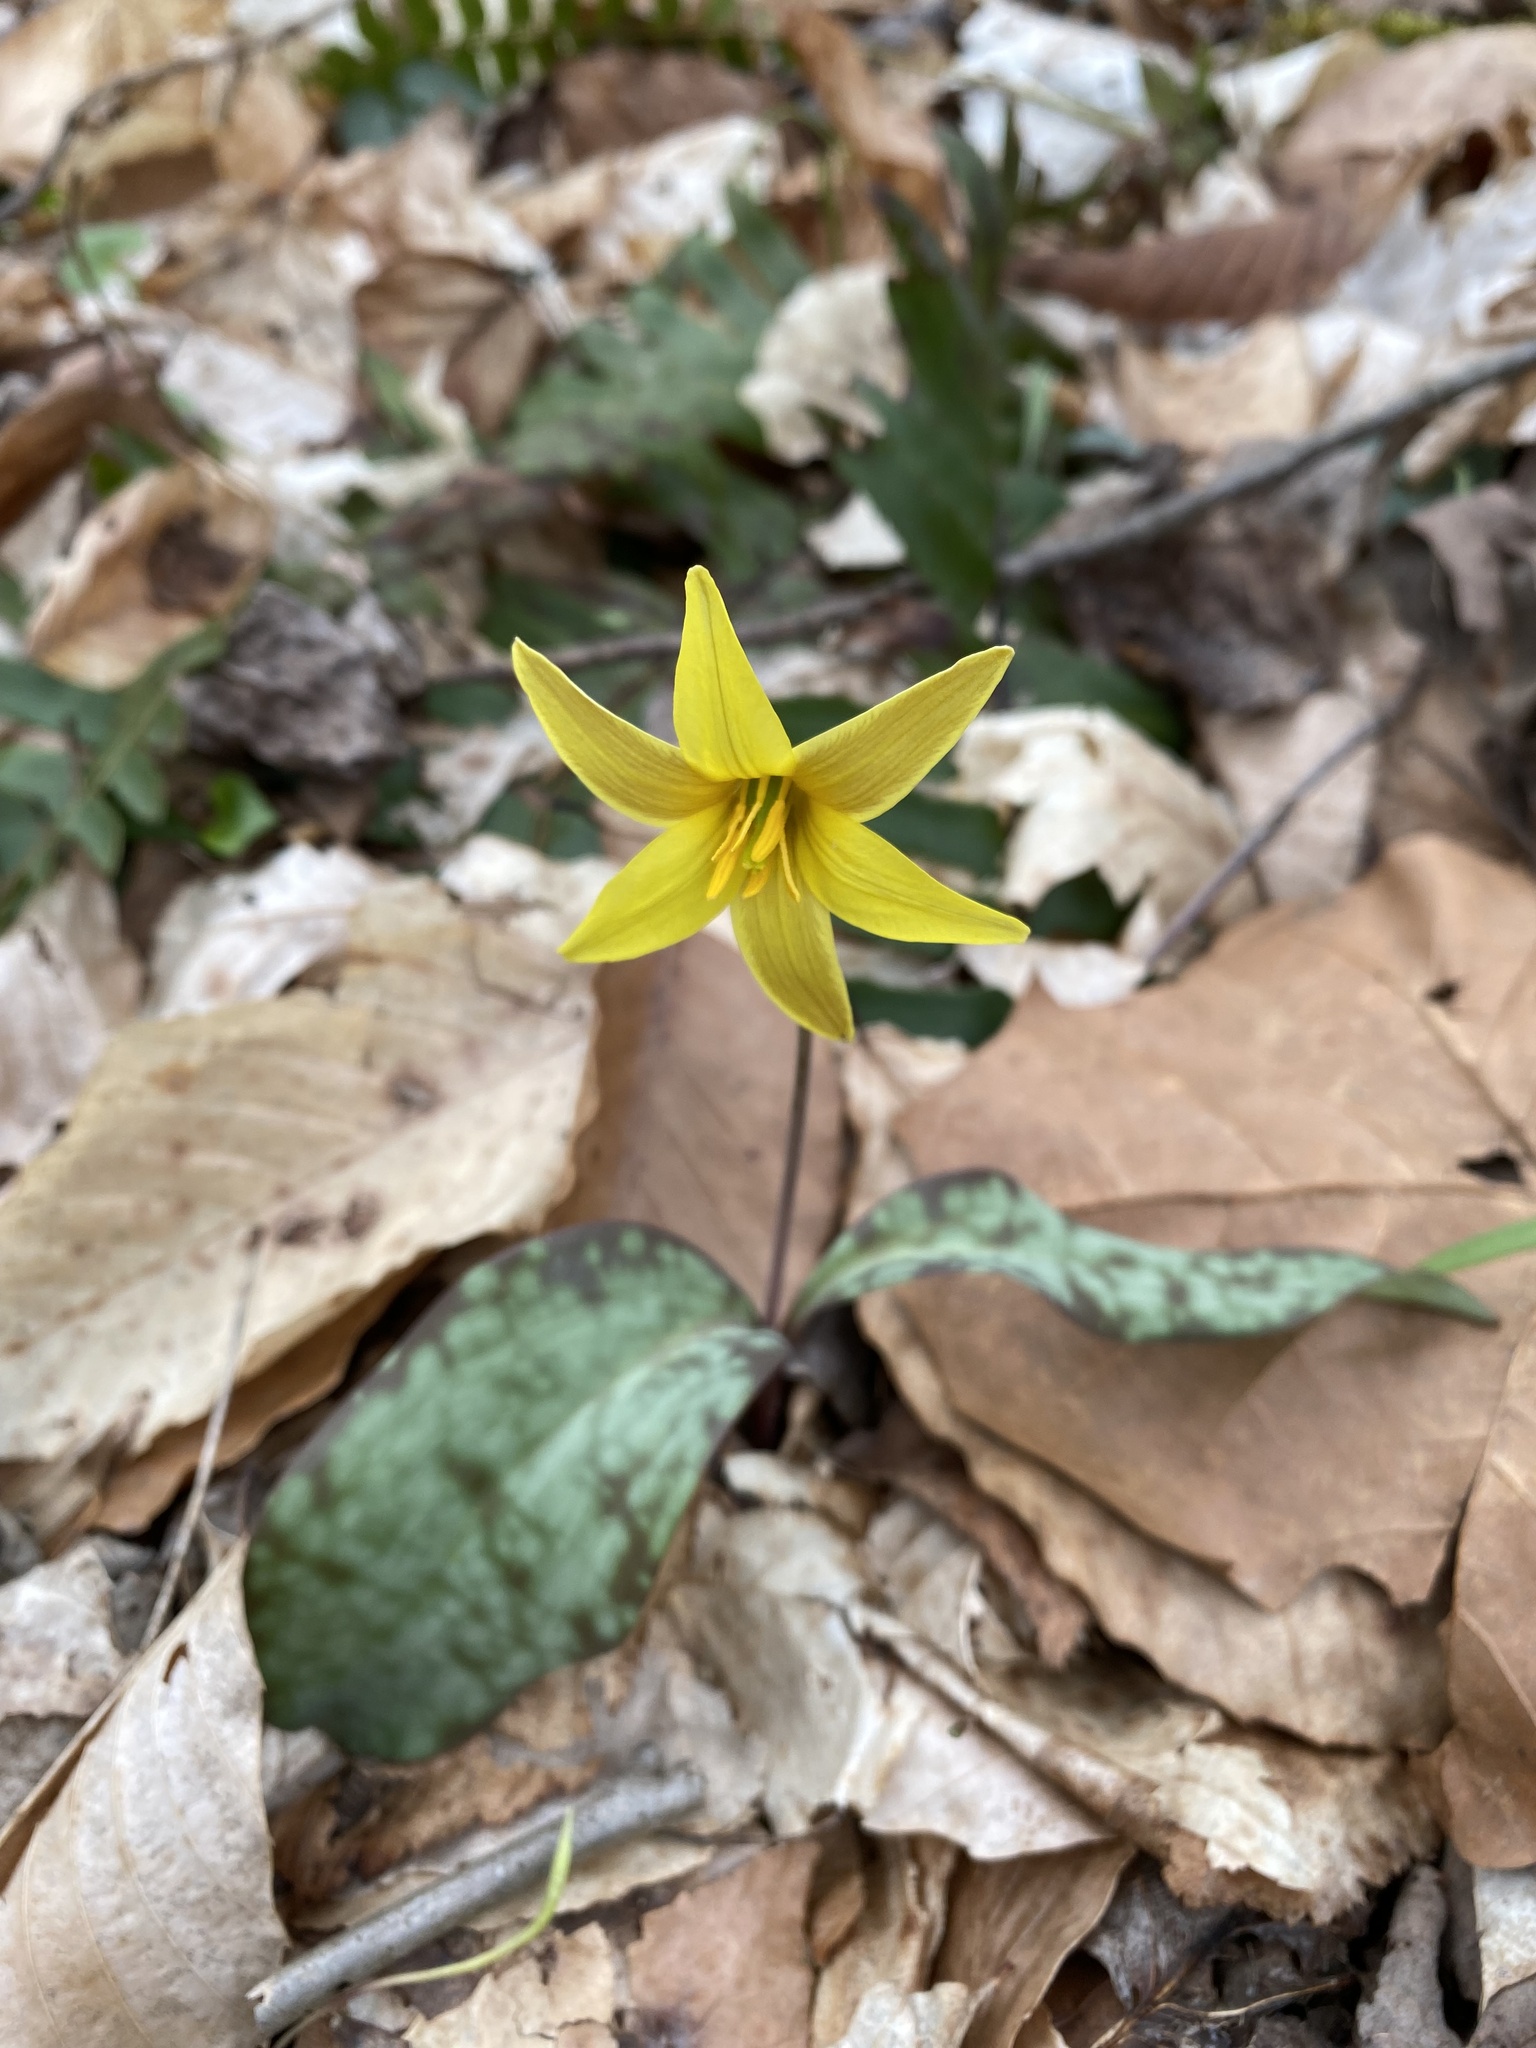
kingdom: Plantae
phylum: Tracheophyta
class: Liliopsida
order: Liliales
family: Liliaceae
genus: Erythronium
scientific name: Erythronium rostratum
